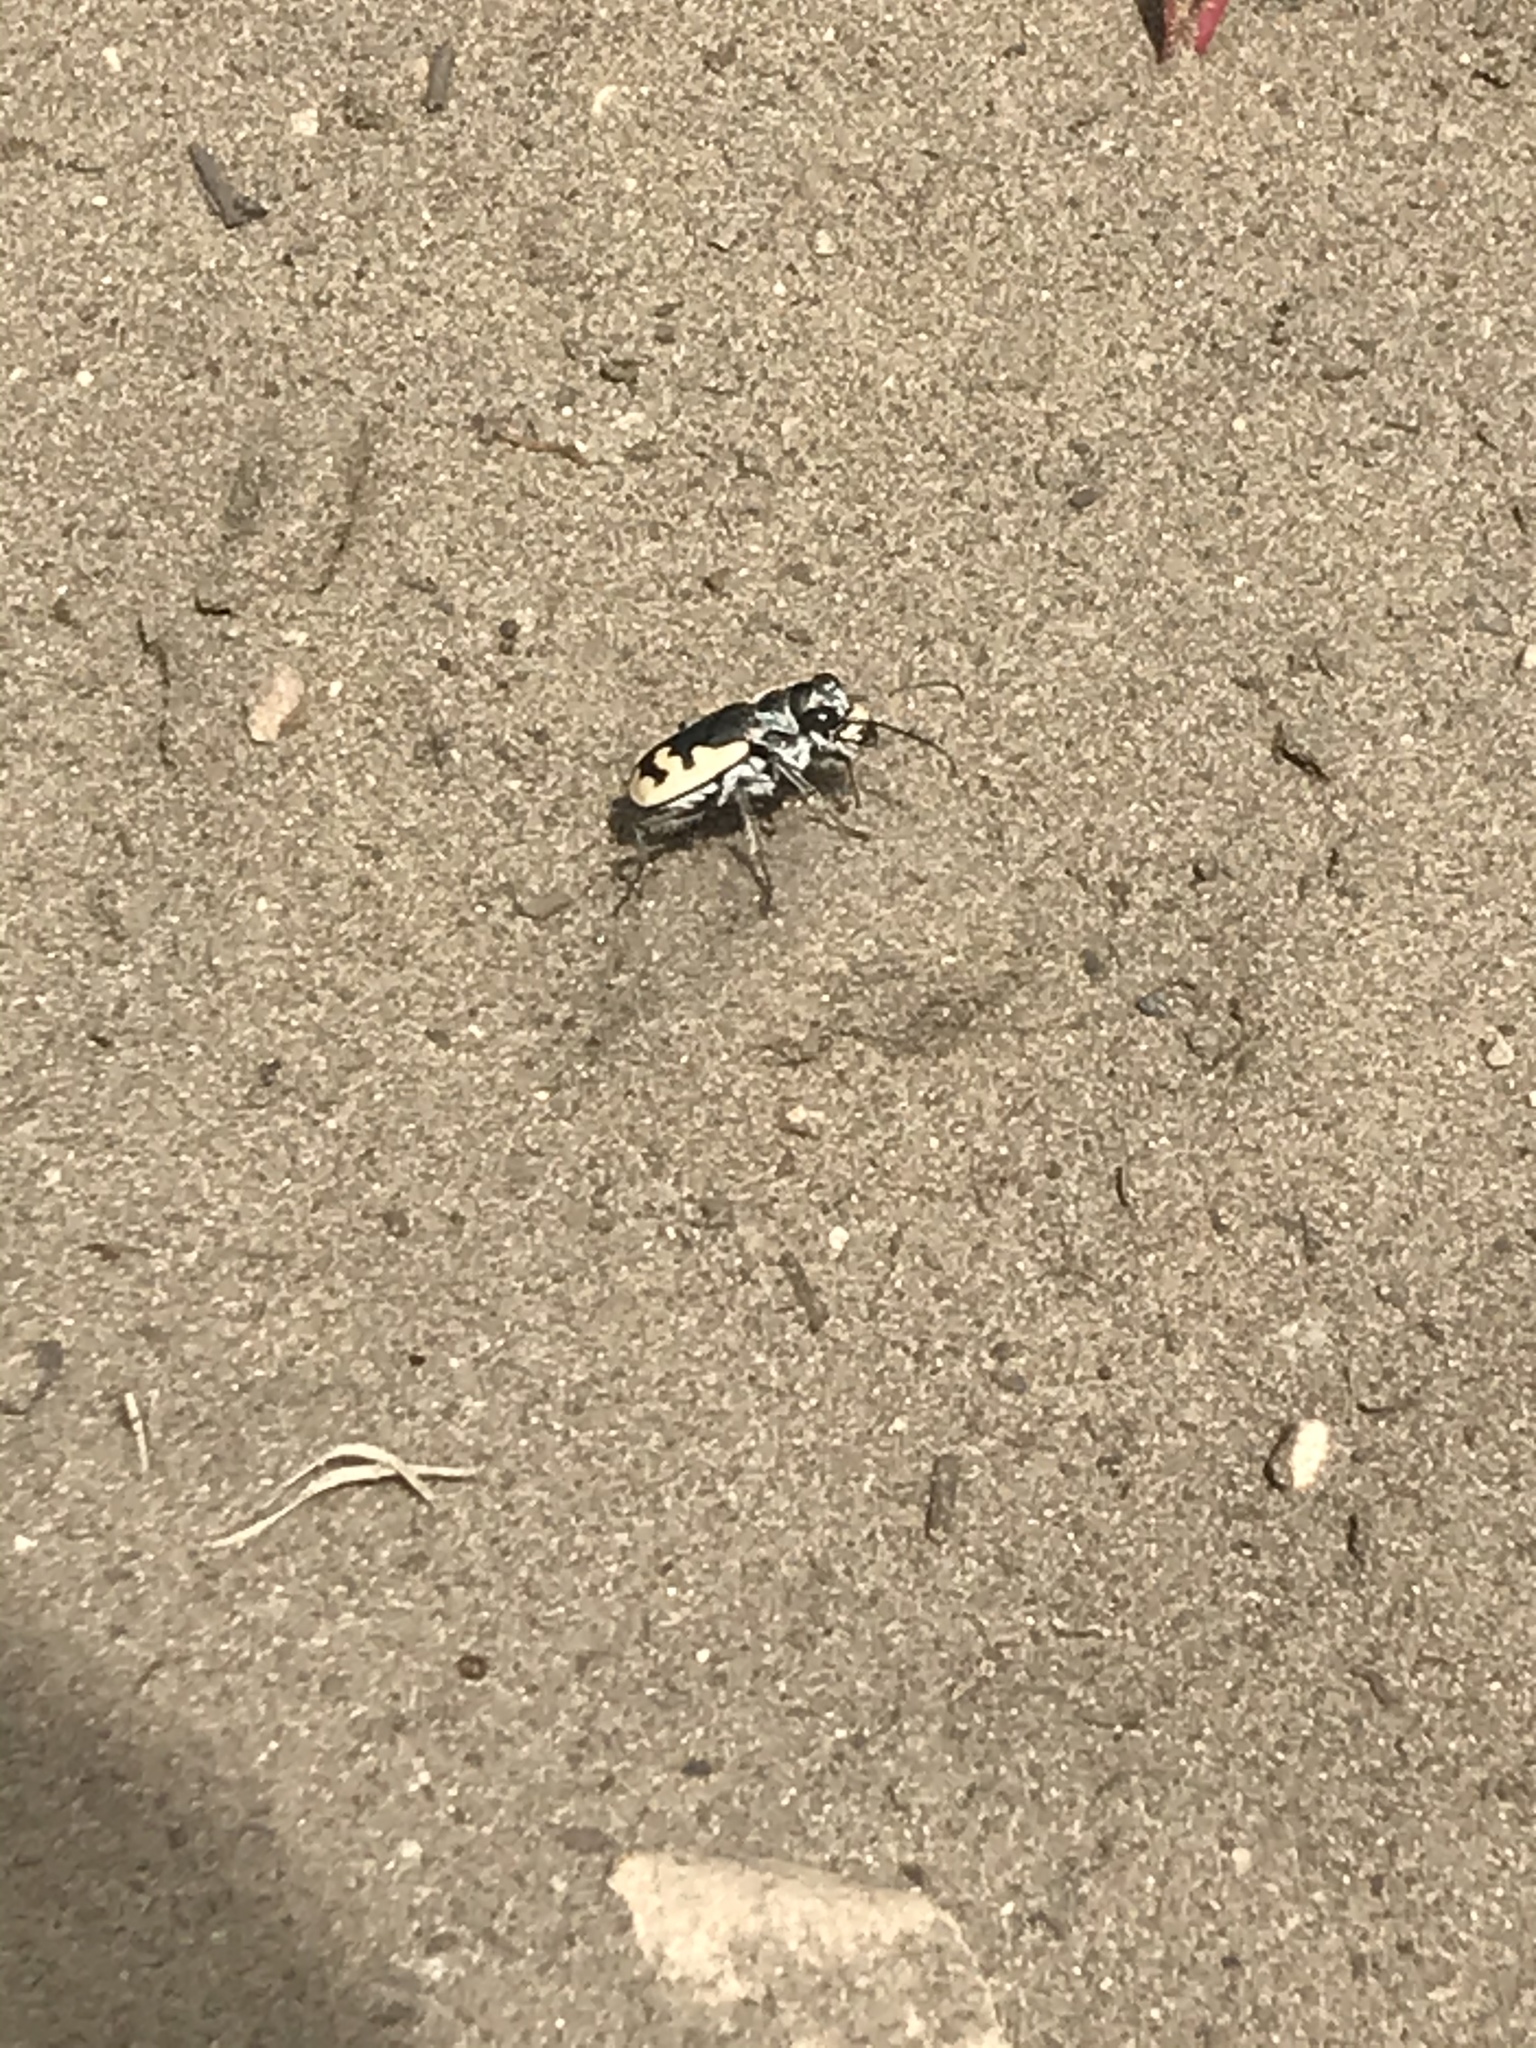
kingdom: Animalia
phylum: Arthropoda
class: Insecta
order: Coleoptera
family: Carabidae
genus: Cicindela
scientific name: Cicindela formosa
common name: Big sand tiger beetle
